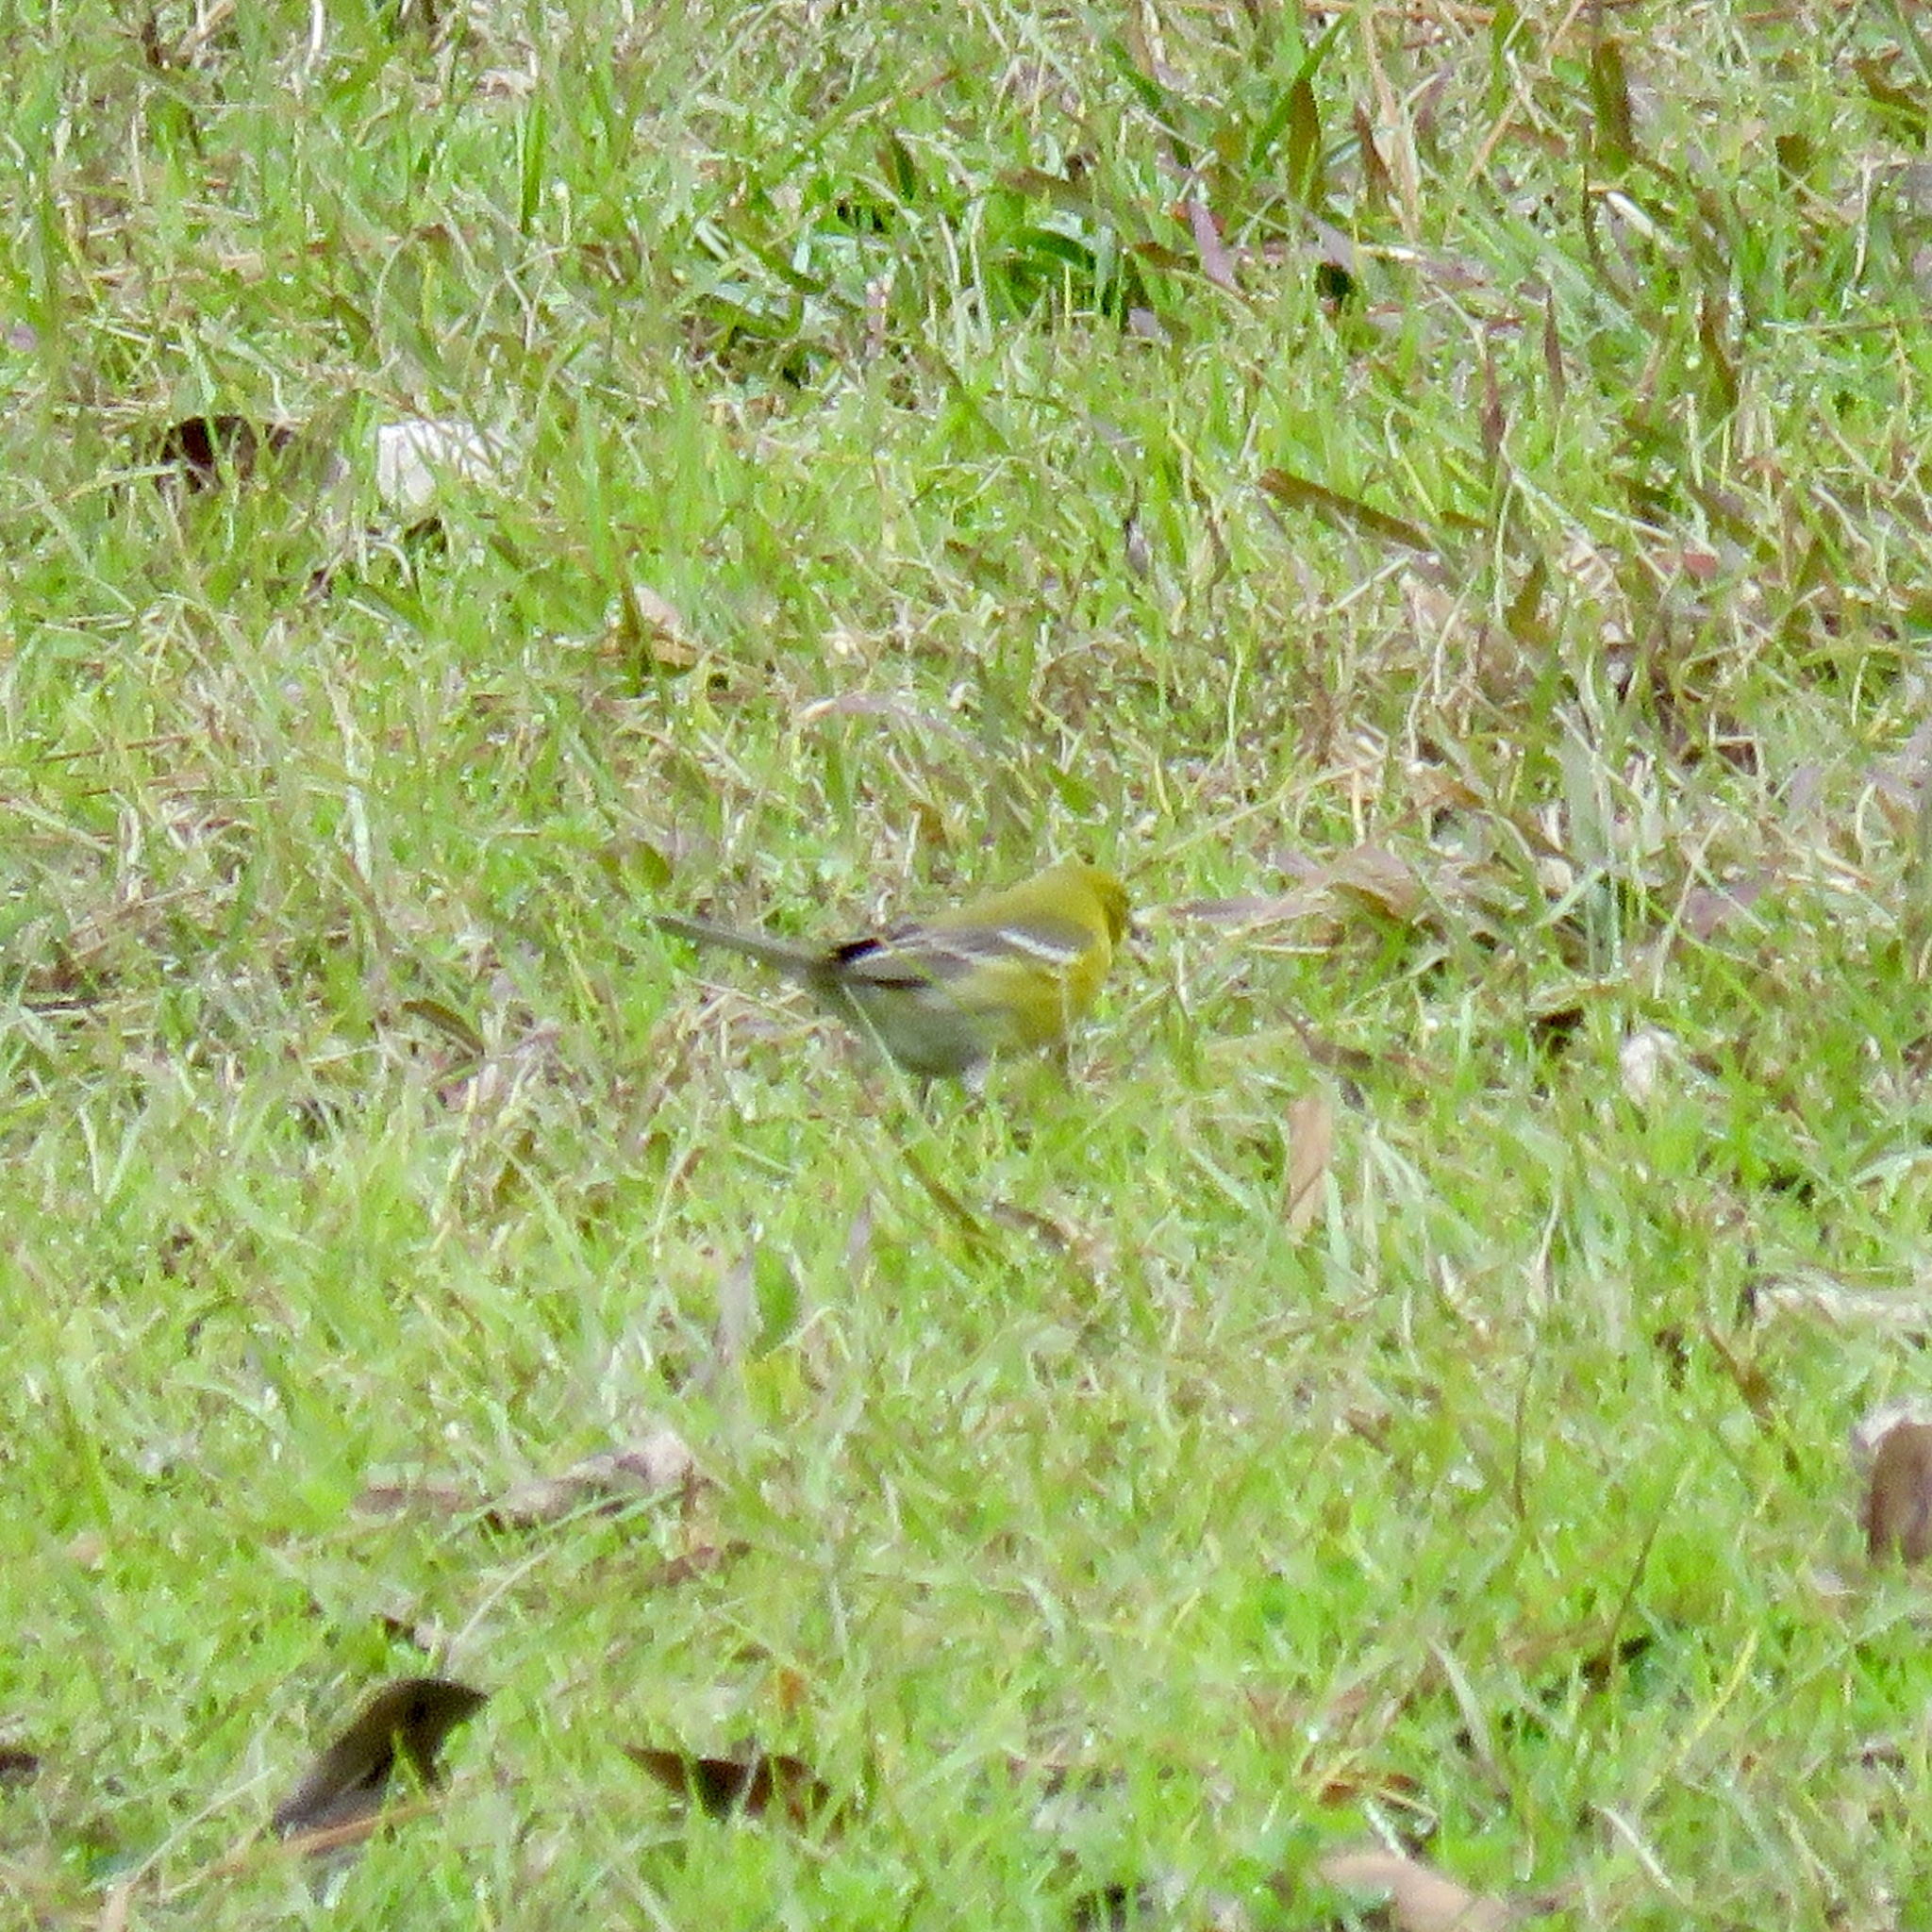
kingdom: Animalia
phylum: Chordata
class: Aves
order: Passeriformes
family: Parulidae
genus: Setophaga
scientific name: Setophaga pinus
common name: Pine warbler
